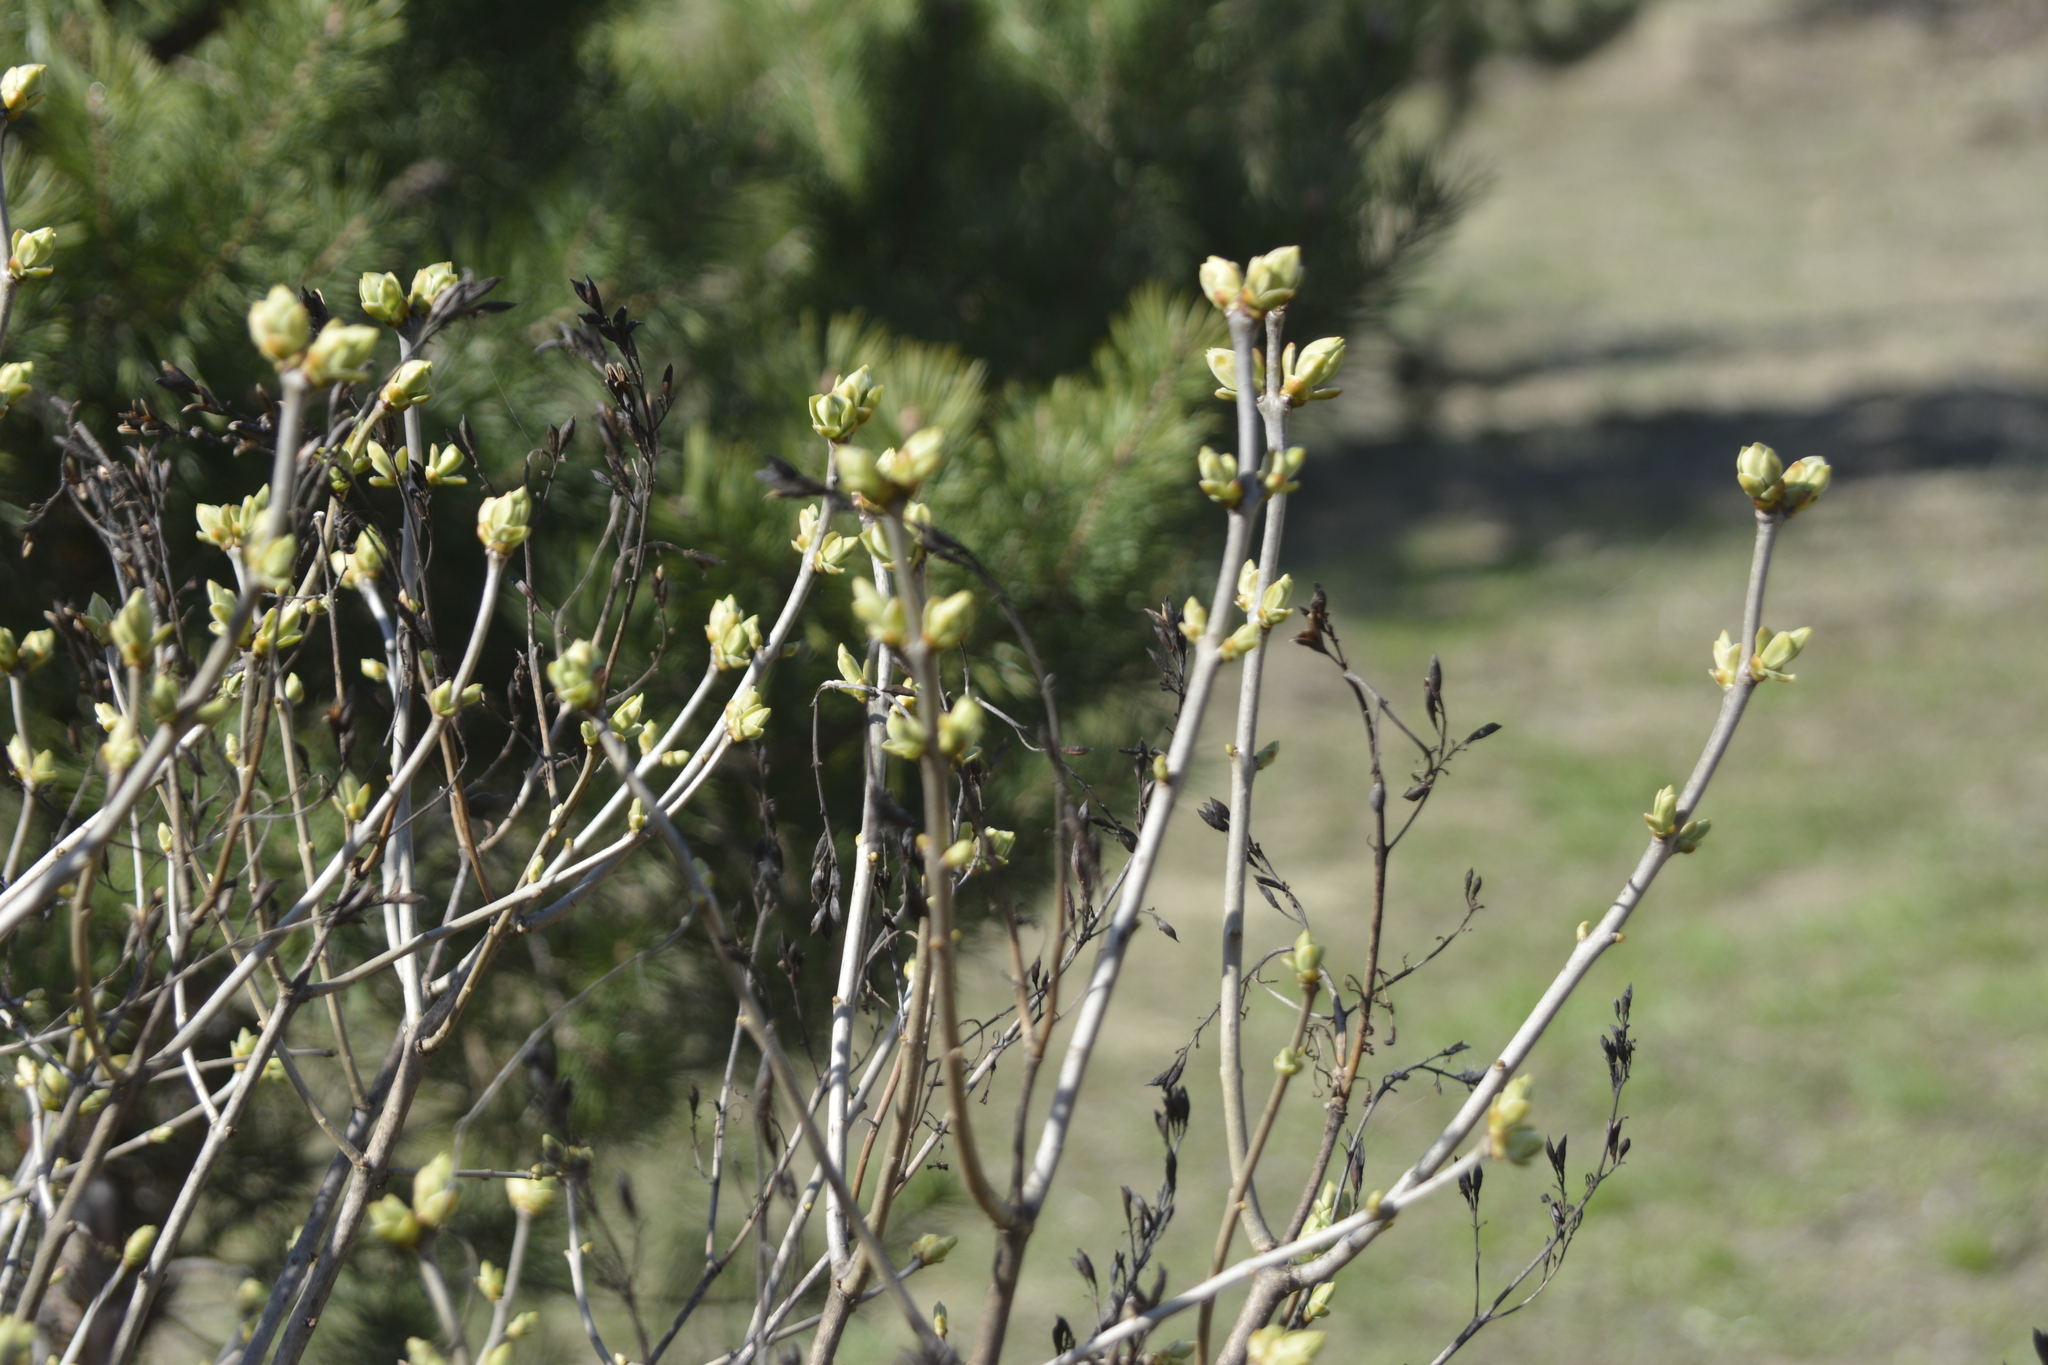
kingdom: Plantae
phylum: Tracheophyta
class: Magnoliopsida
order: Lamiales
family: Oleaceae
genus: Syringa
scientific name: Syringa vulgaris
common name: Common lilac
